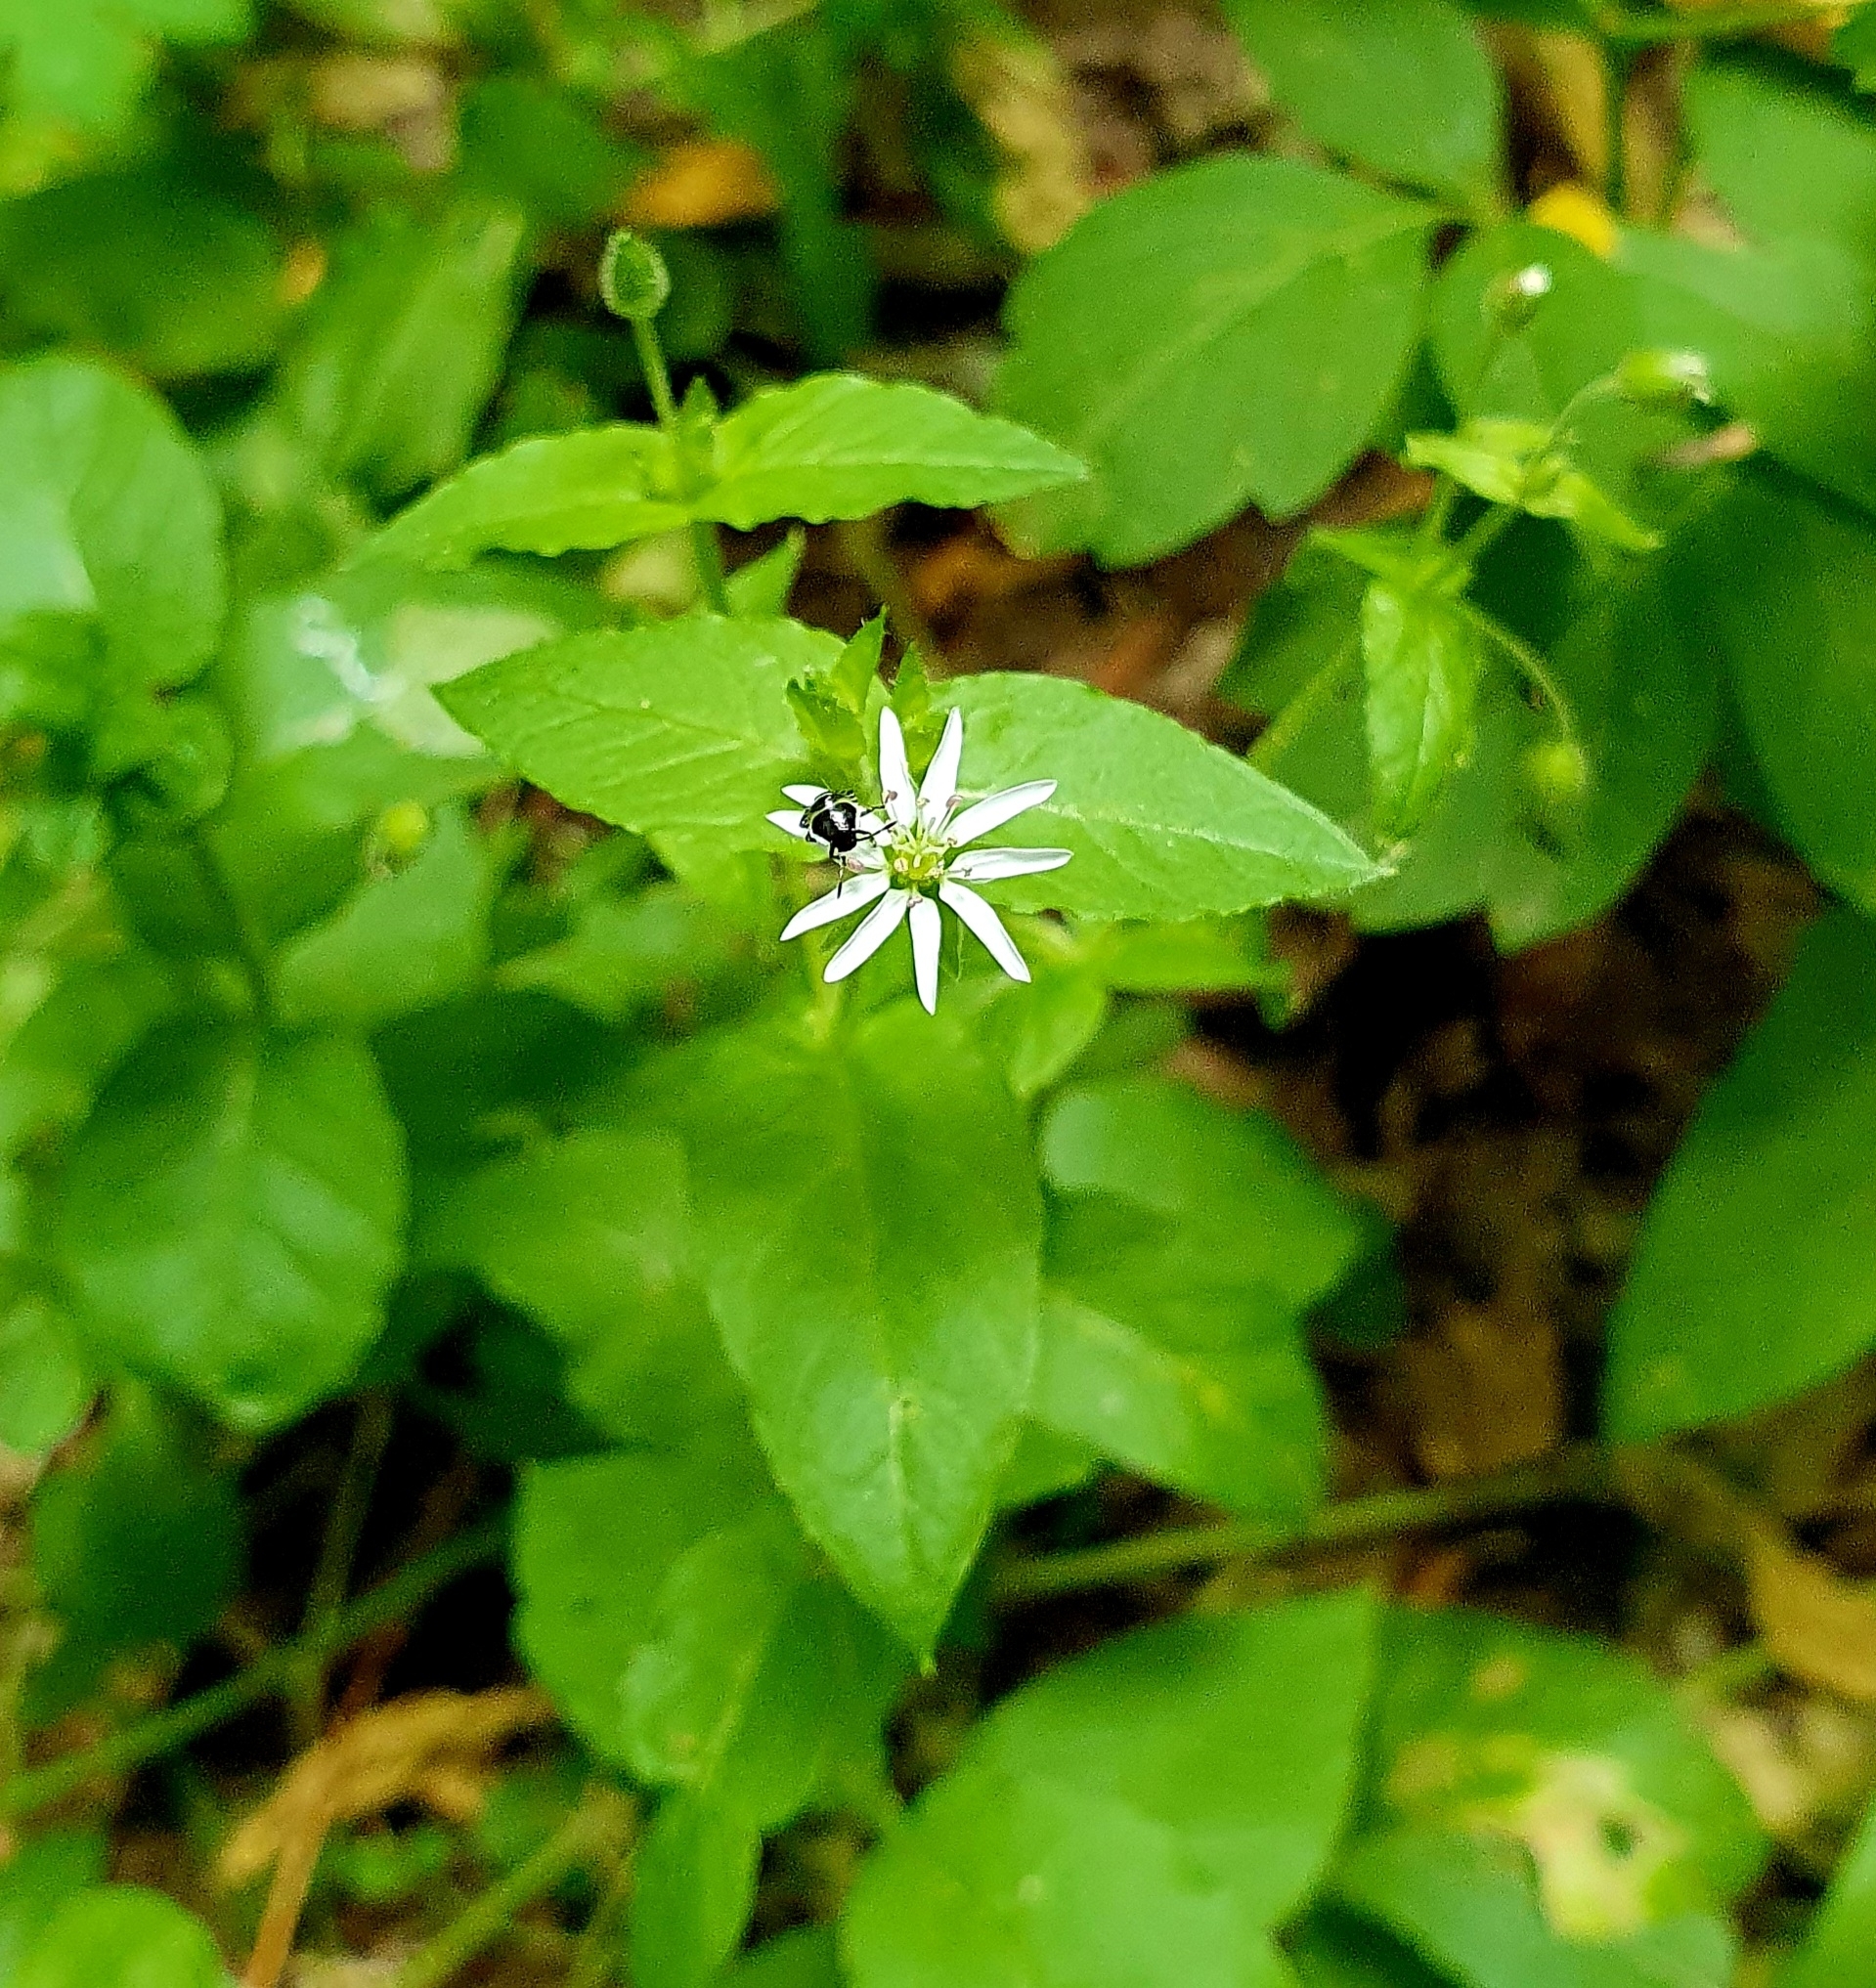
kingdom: Plantae
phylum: Tracheophyta
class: Magnoliopsida
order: Caryophyllales
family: Caryophyllaceae
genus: Stellaria
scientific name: Stellaria aquatica
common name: Water chickweed
